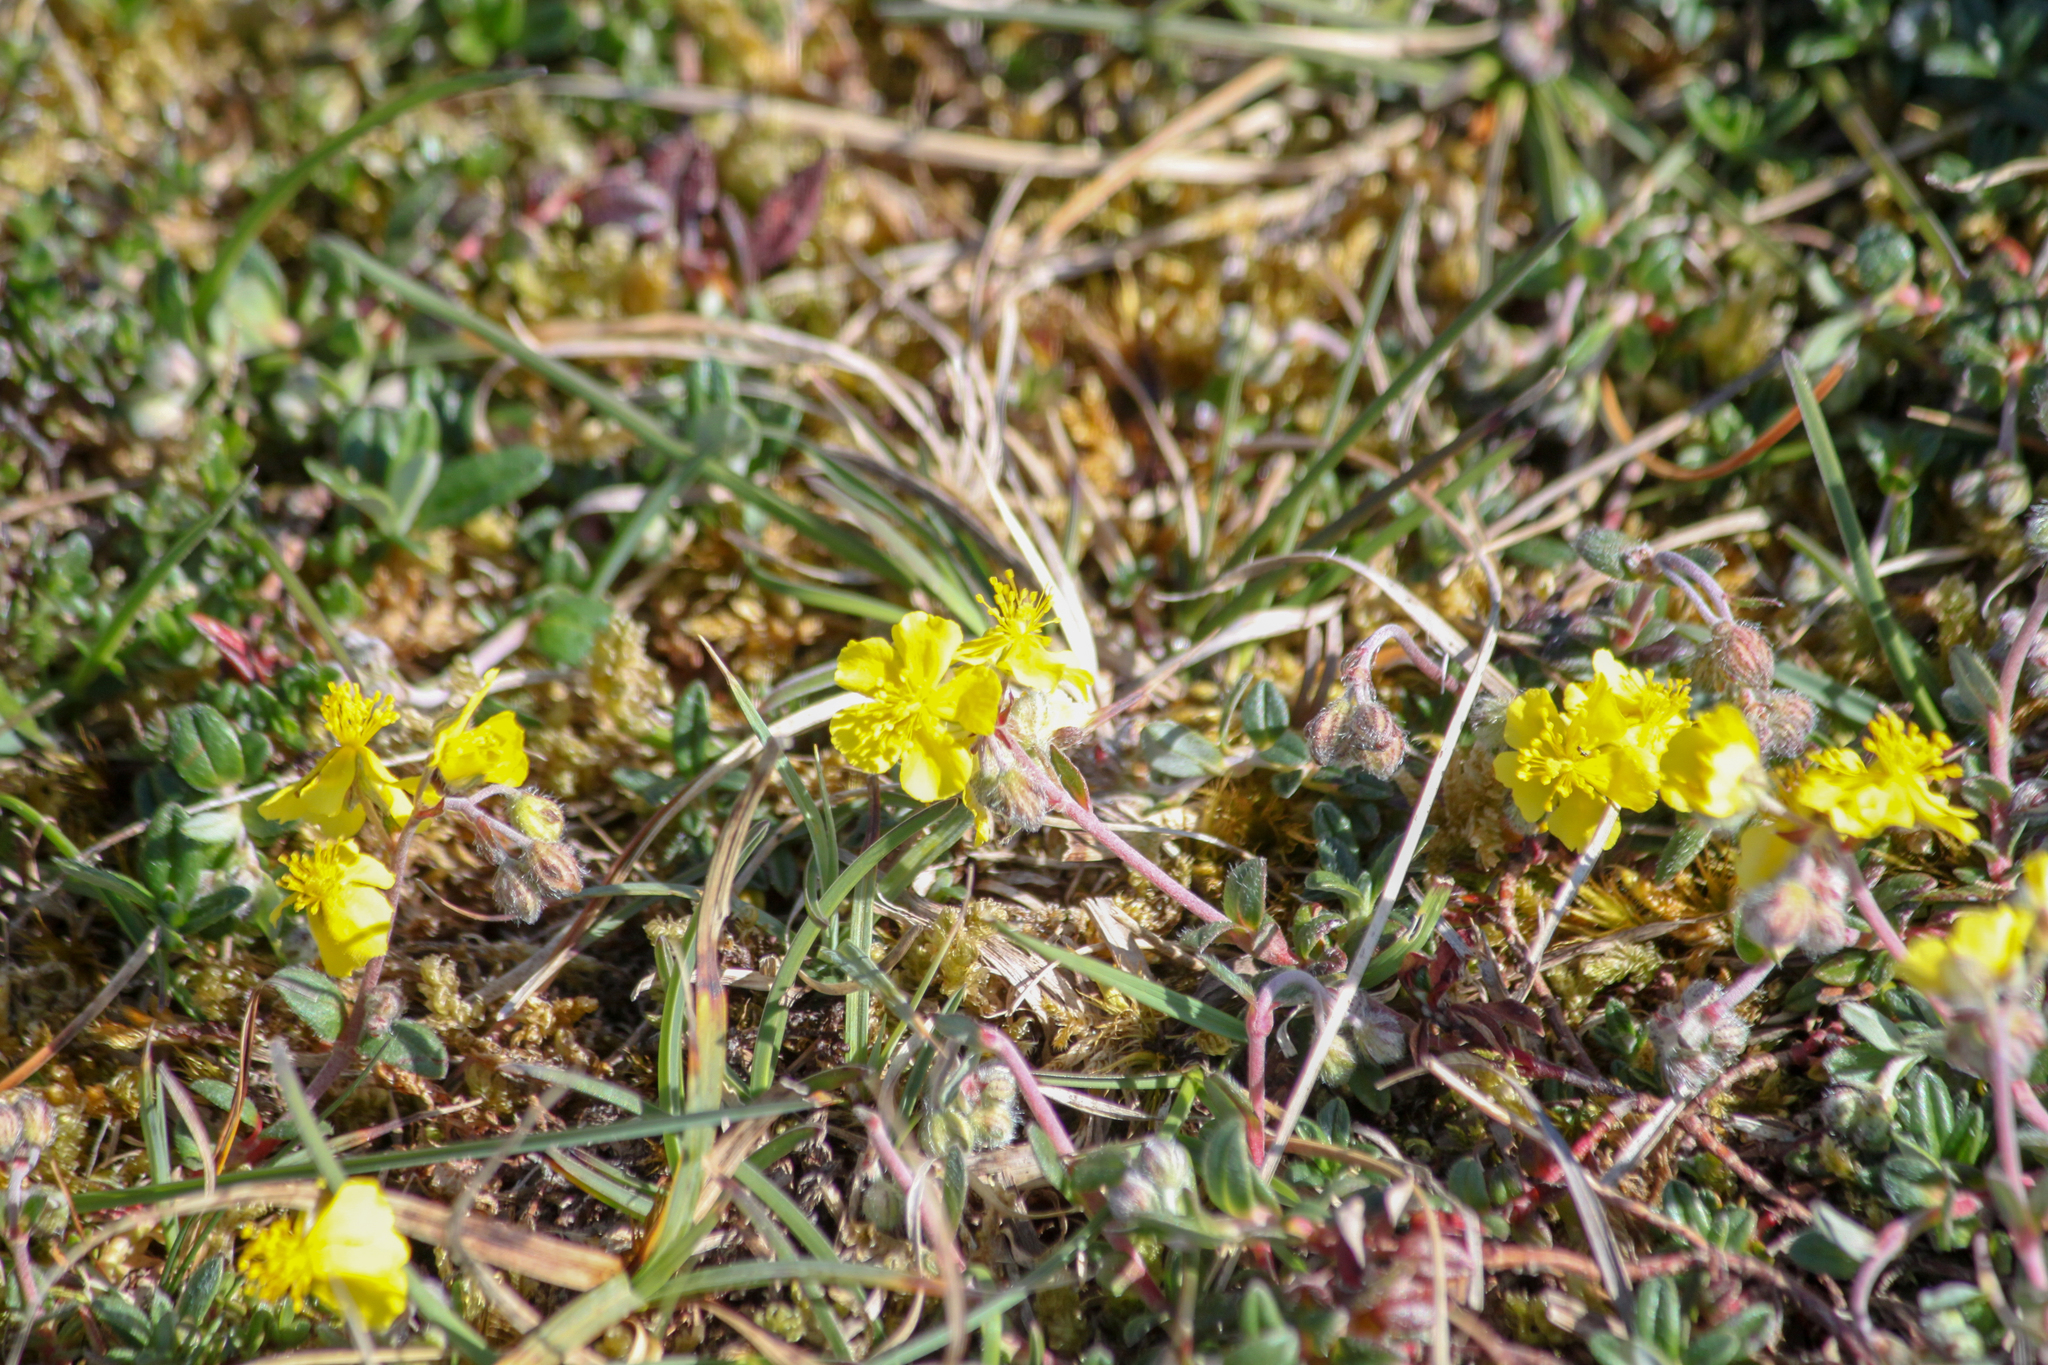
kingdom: Plantae
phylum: Tracheophyta
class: Magnoliopsida
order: Malvales
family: Cistaceae
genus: Helianthemum
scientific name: Helianthemum canum
